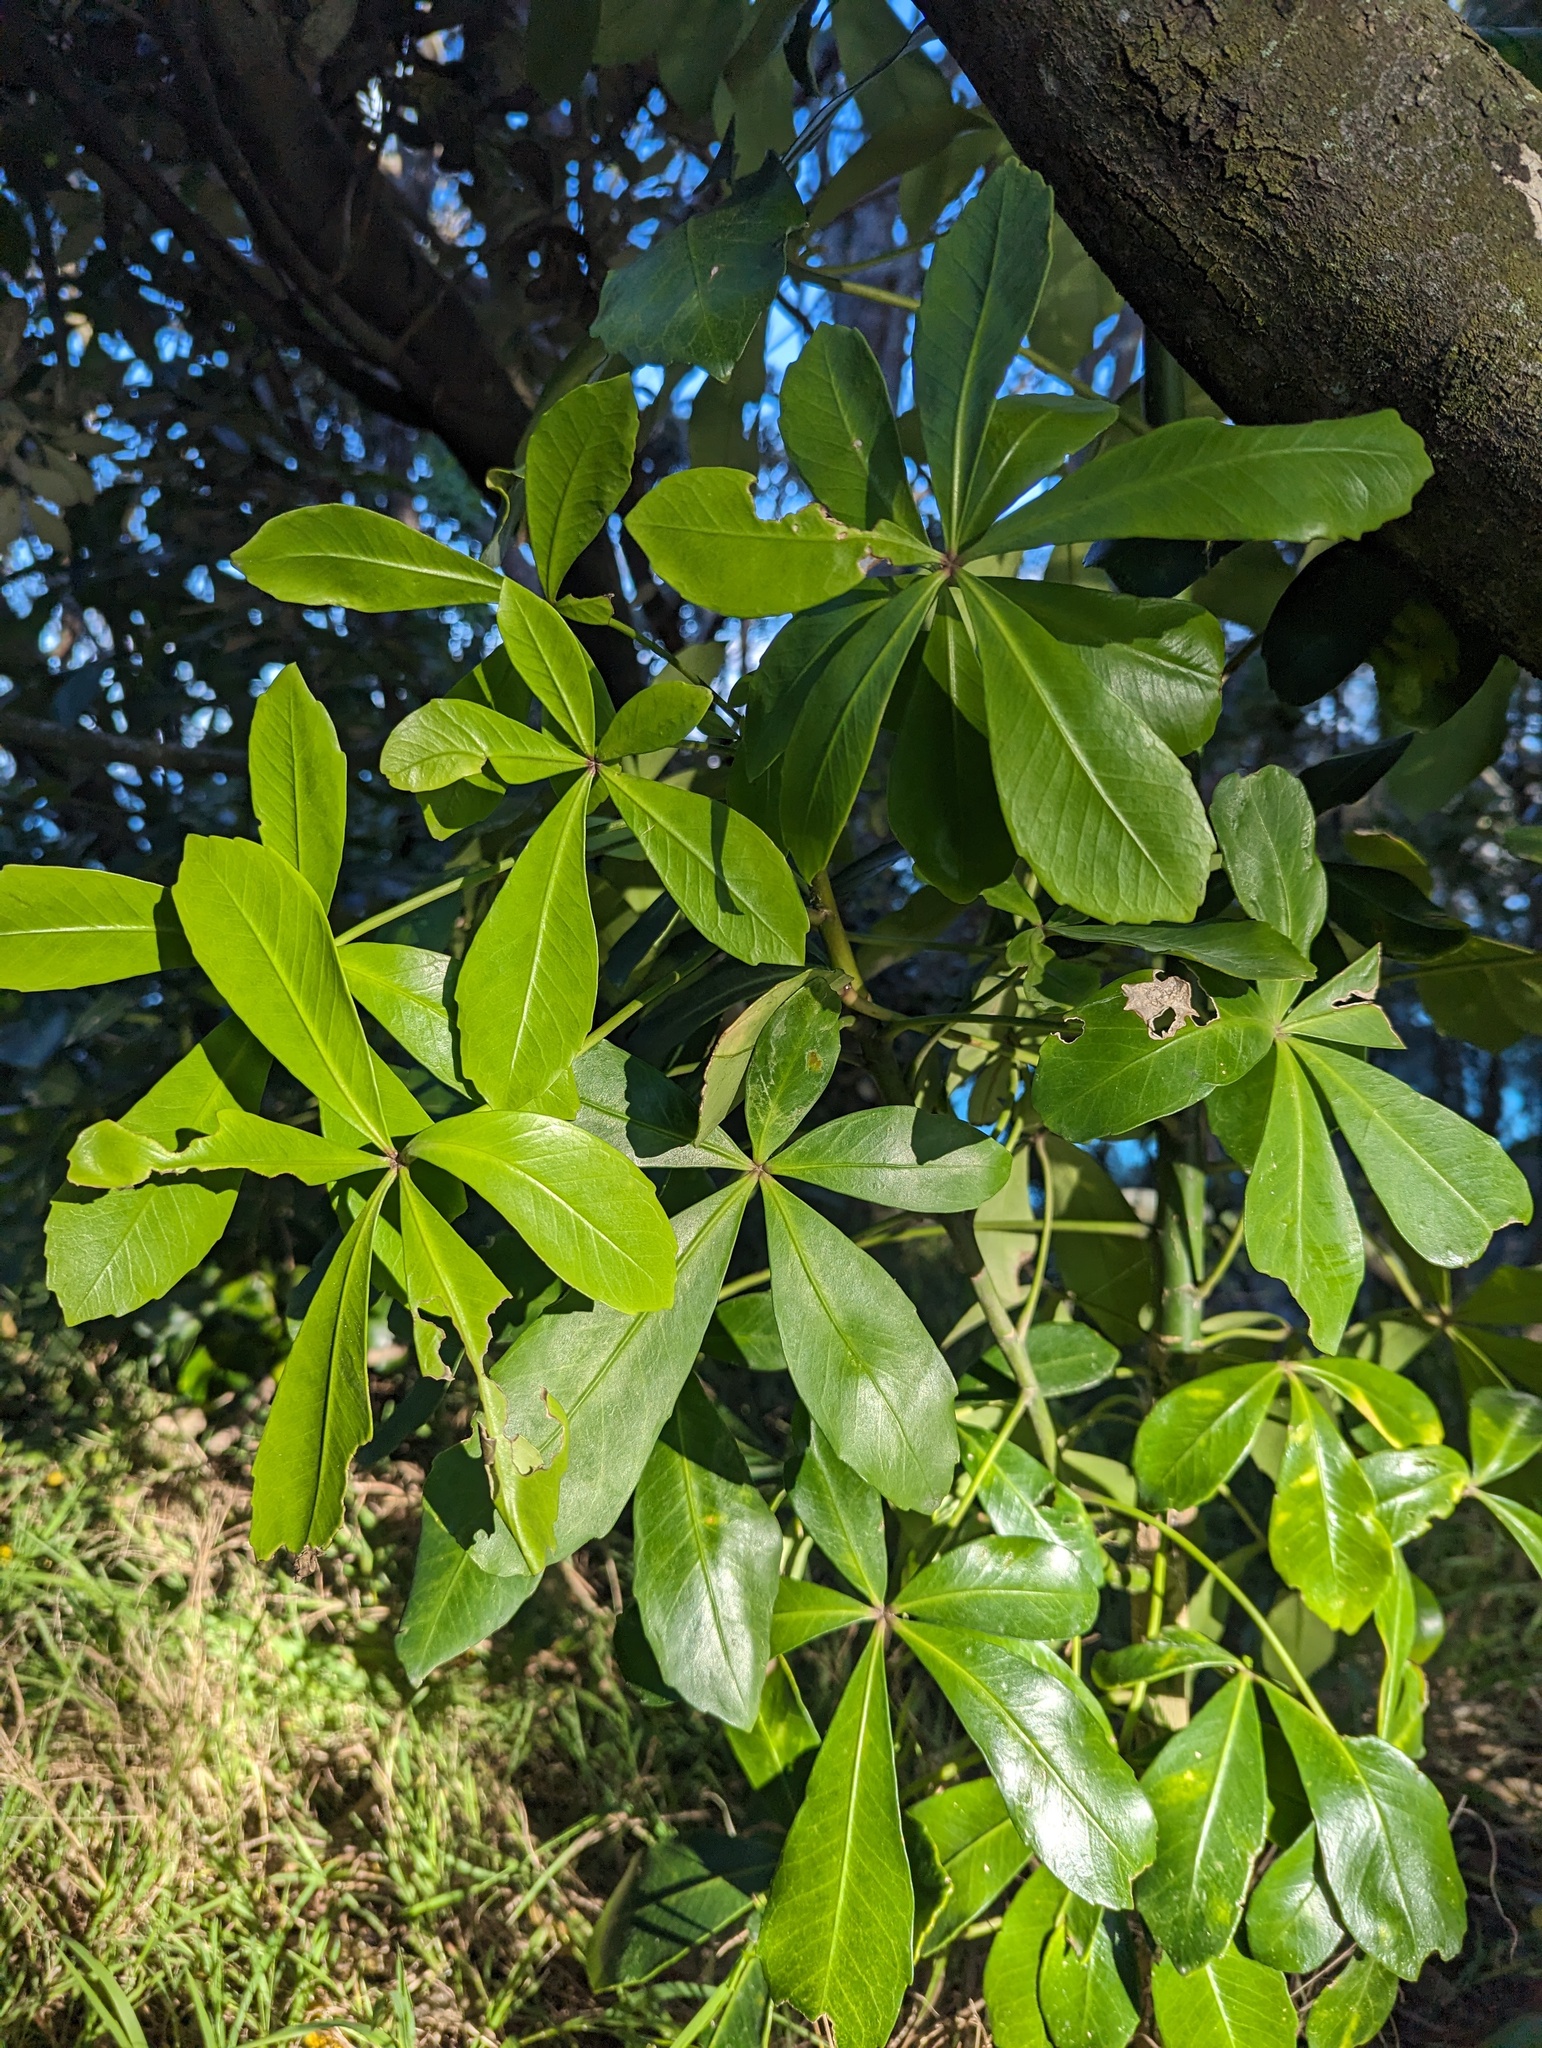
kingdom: Plantae
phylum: Tracheophyta
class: Magnoliopsida
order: Apiales
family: Araliaceae
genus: Pseudopanax
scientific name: Pseudopanax lessonii
